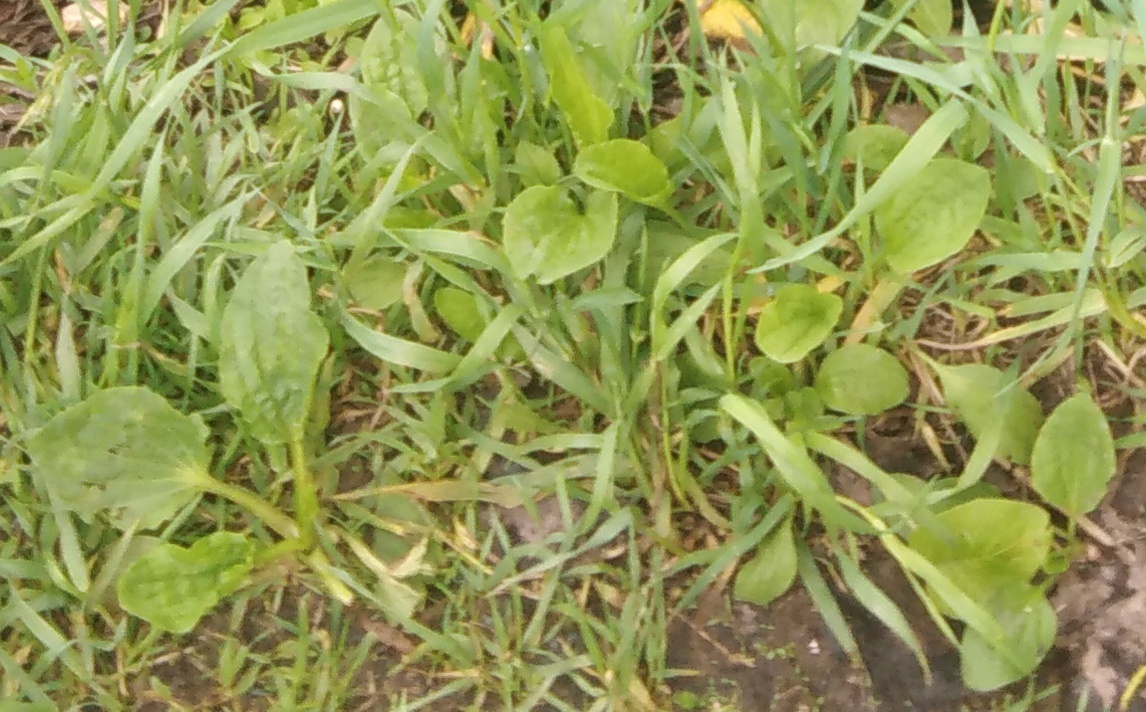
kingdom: Plantae
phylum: Tracheophyta
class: Magnoliopsida
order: Lamiales
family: Plantaginaceae
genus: Plantago
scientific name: Plantago major
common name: Common plantain
